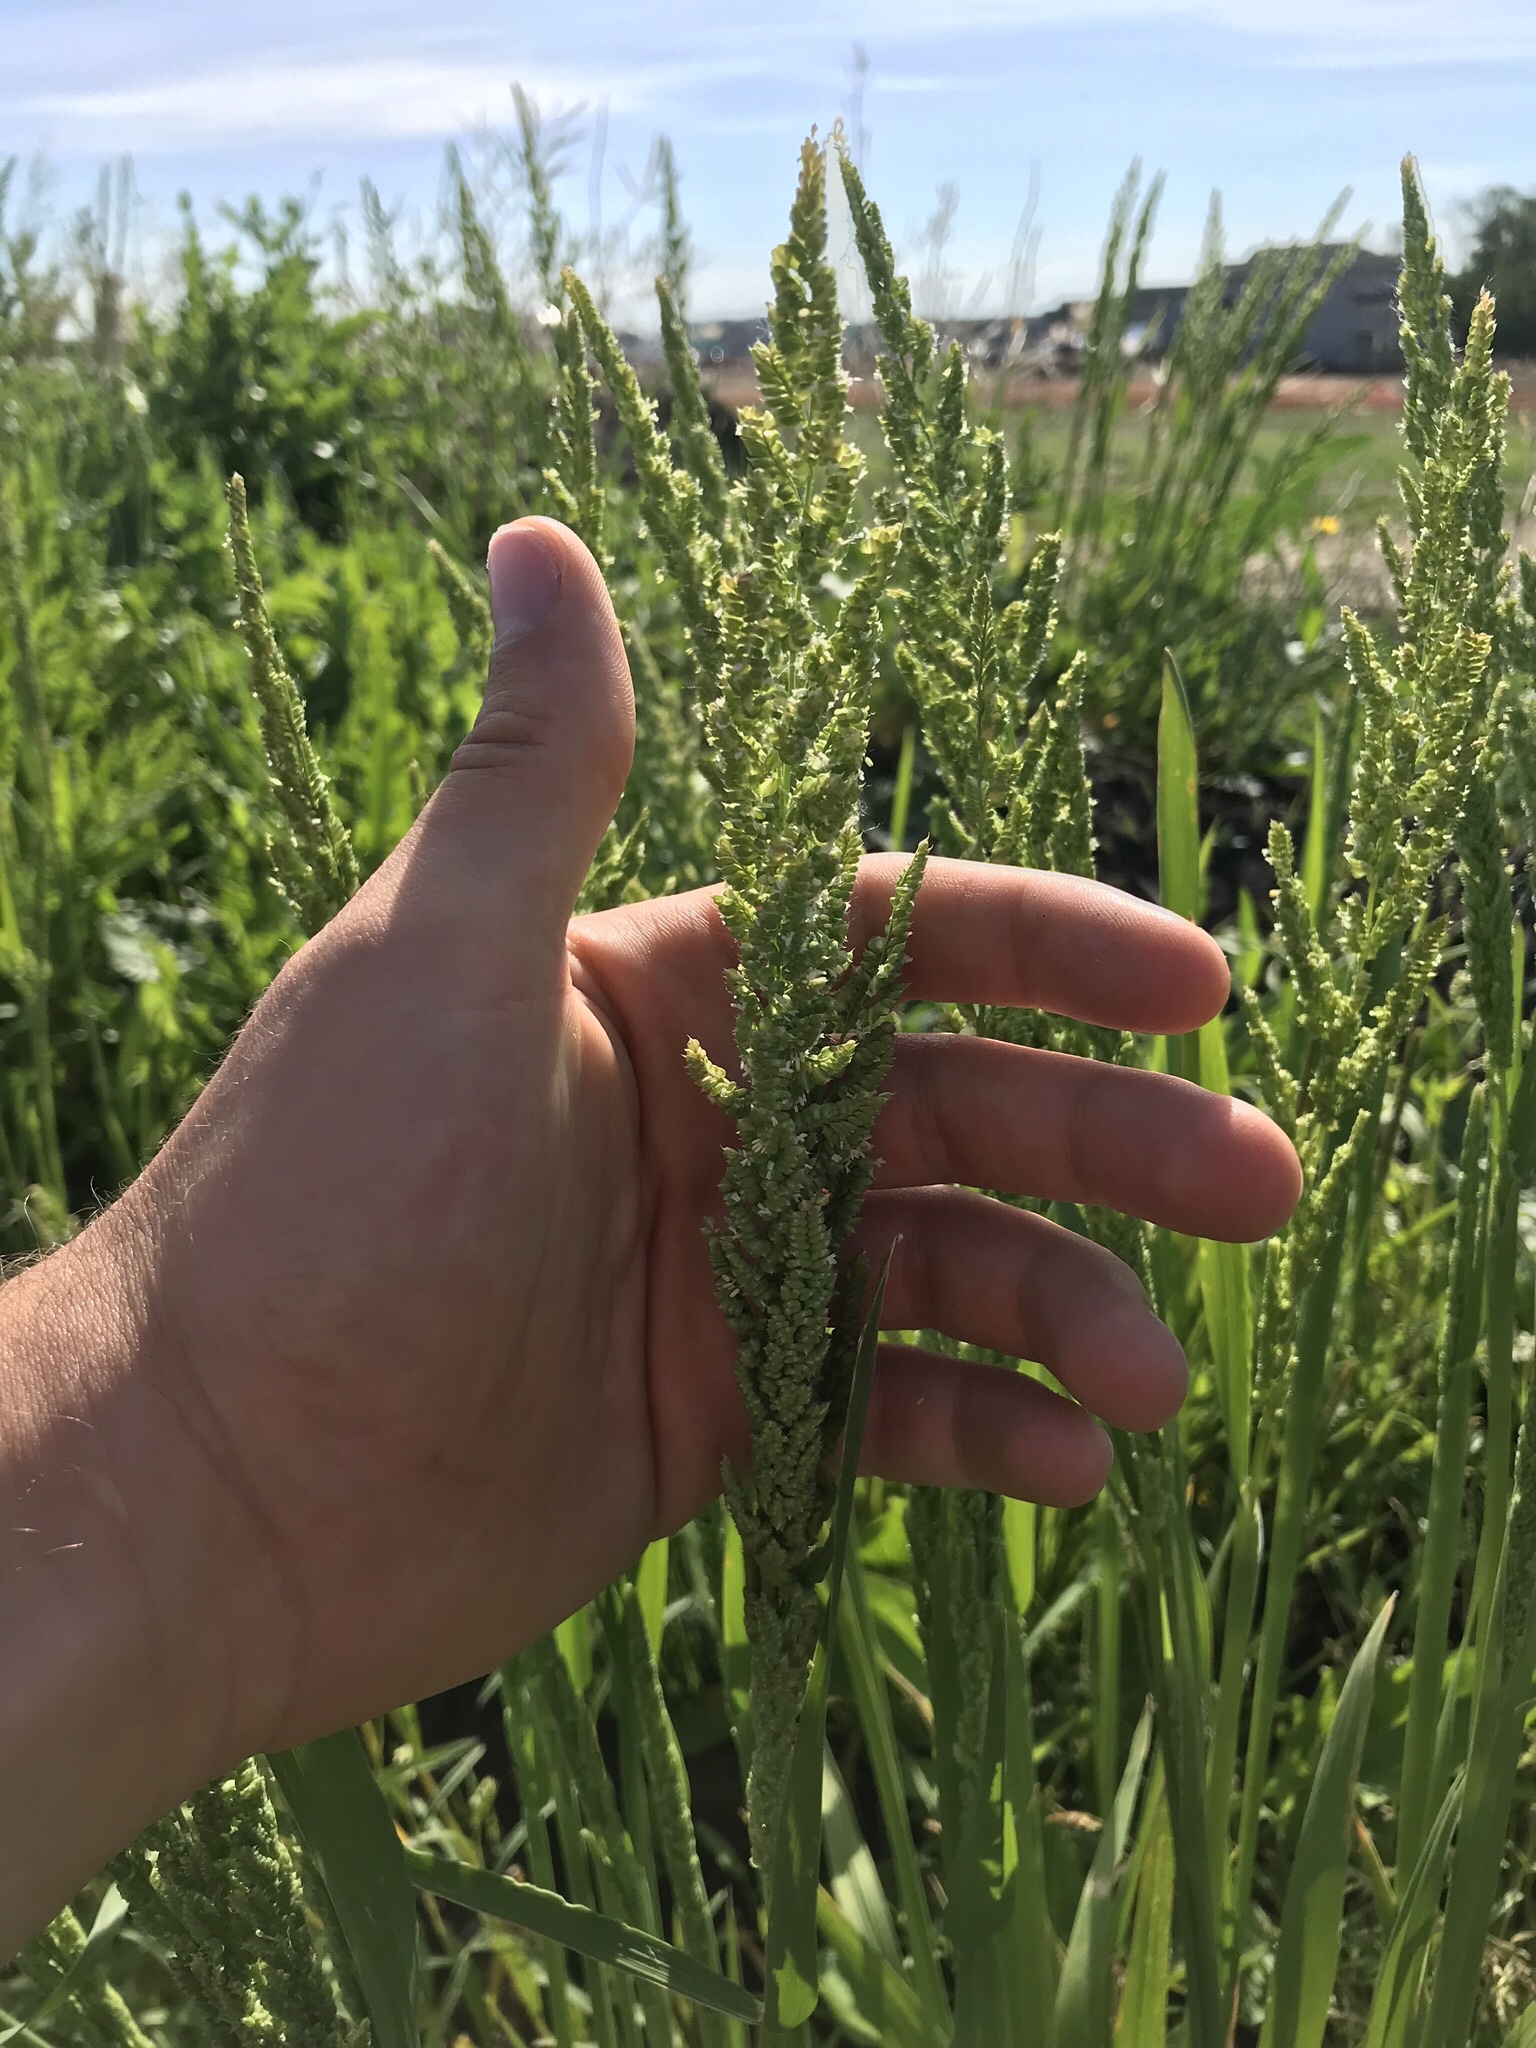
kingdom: Plantae
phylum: Tracheophyta
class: Liliopsida
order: Poales
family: Poaceae
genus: Beckmannia
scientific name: Beckmannia syzigachne
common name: American slough-grass
